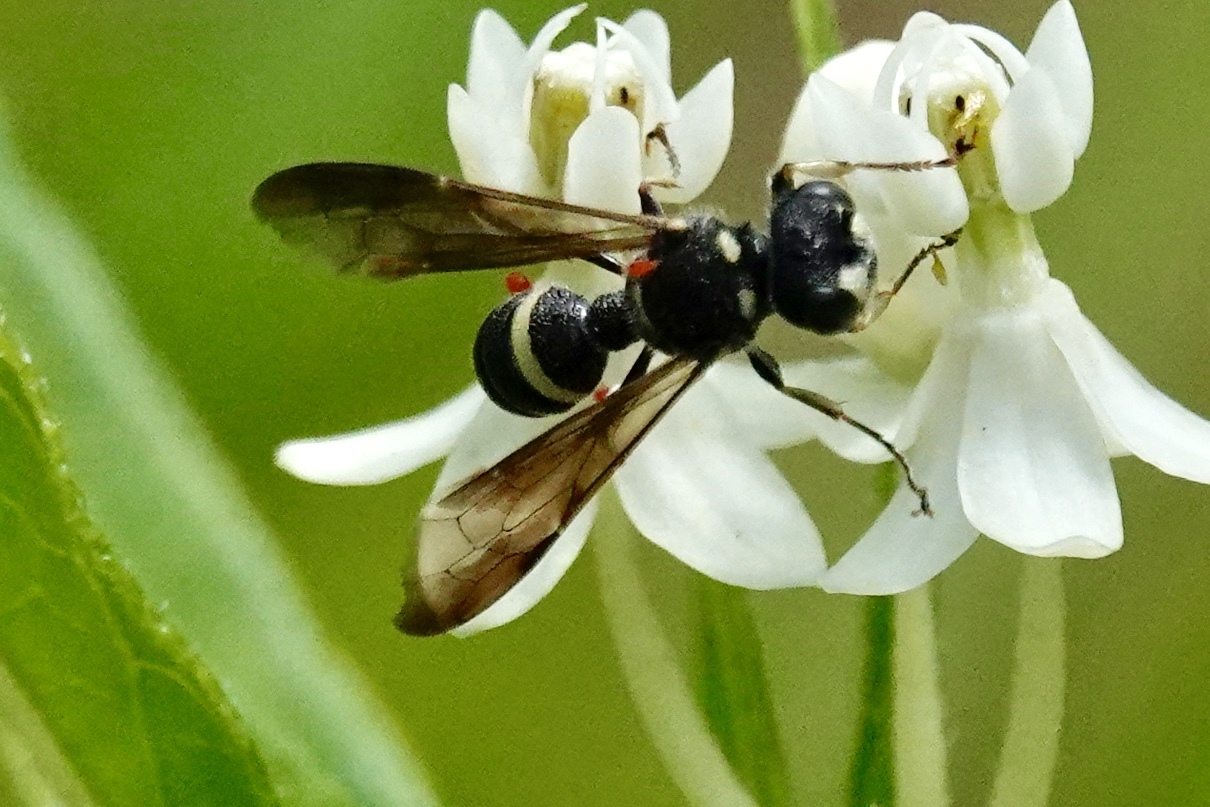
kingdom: Animalia
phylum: Arthropoda
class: Insecta
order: Hymenoptera
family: Crabronidae
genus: Cerceris
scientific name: Cerceris fumipennis
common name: Smokey-winged beetle bandit wasp
